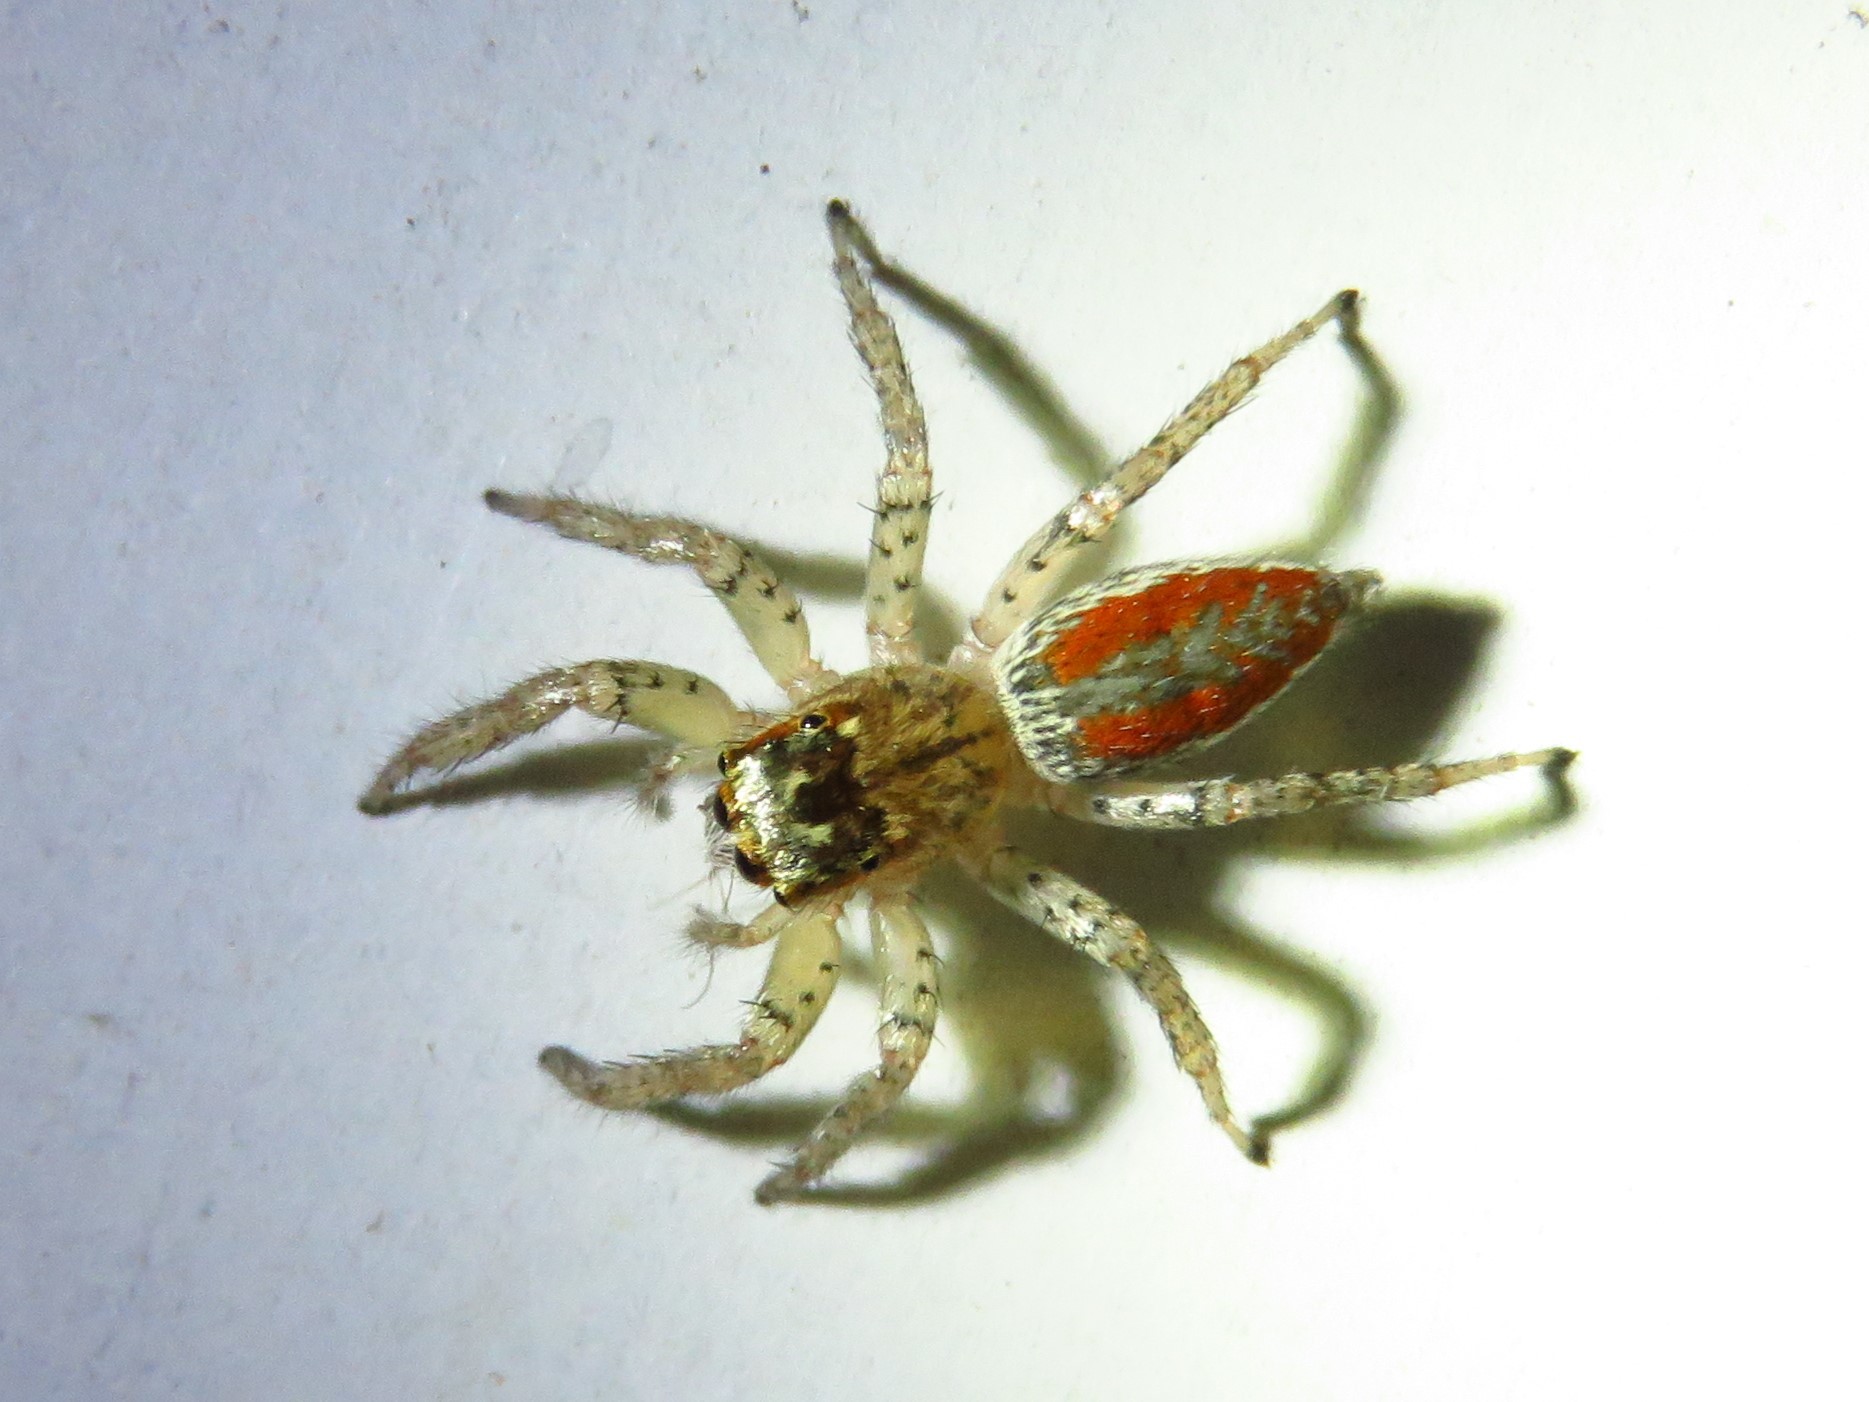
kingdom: Animalia
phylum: Arthropoda
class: Arachnida
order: Araneae
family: Salticidae
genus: Maevia
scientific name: Maevia inclemens
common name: Dimorphic jumper
